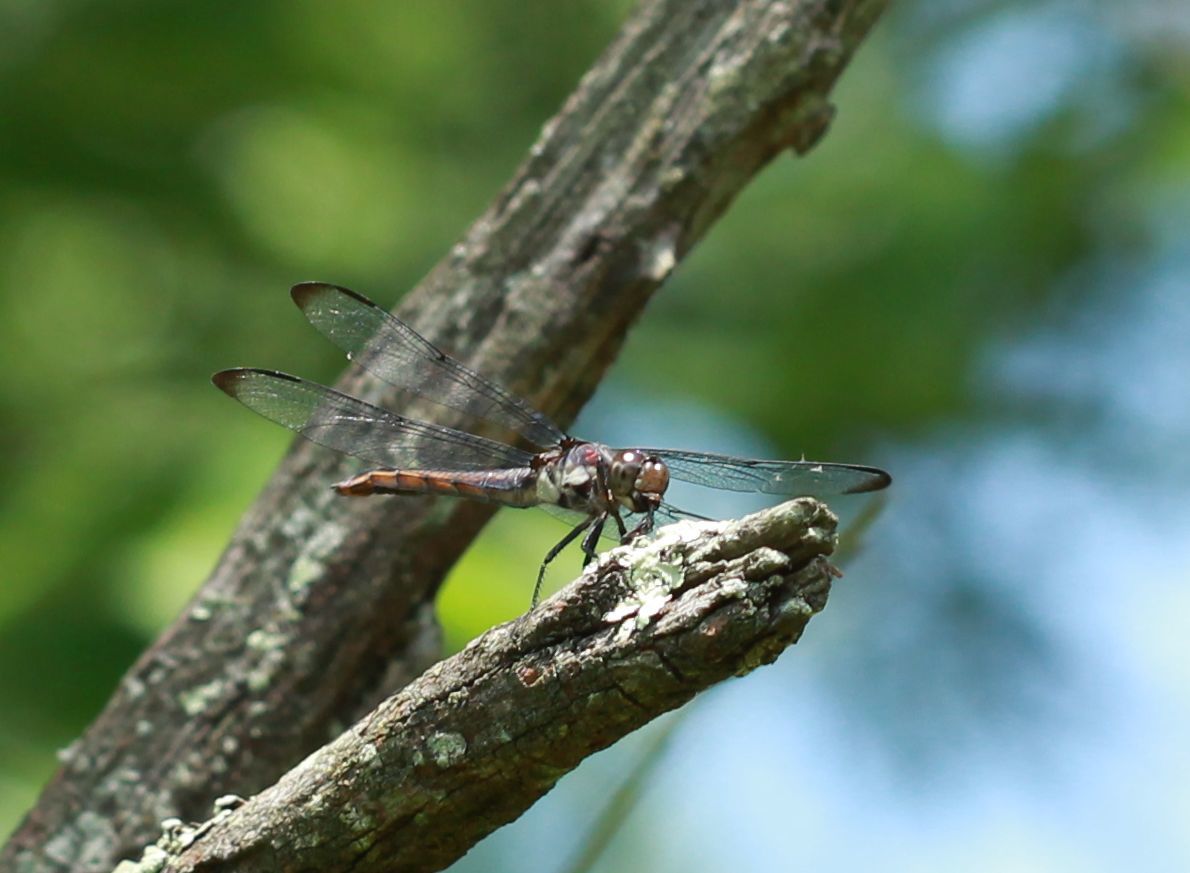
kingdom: Animalia
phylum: Arthropoda
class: Insecta
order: Odonata
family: Libellulidae
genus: Libellula
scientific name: Libellula incesta
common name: Slaty skimmer
